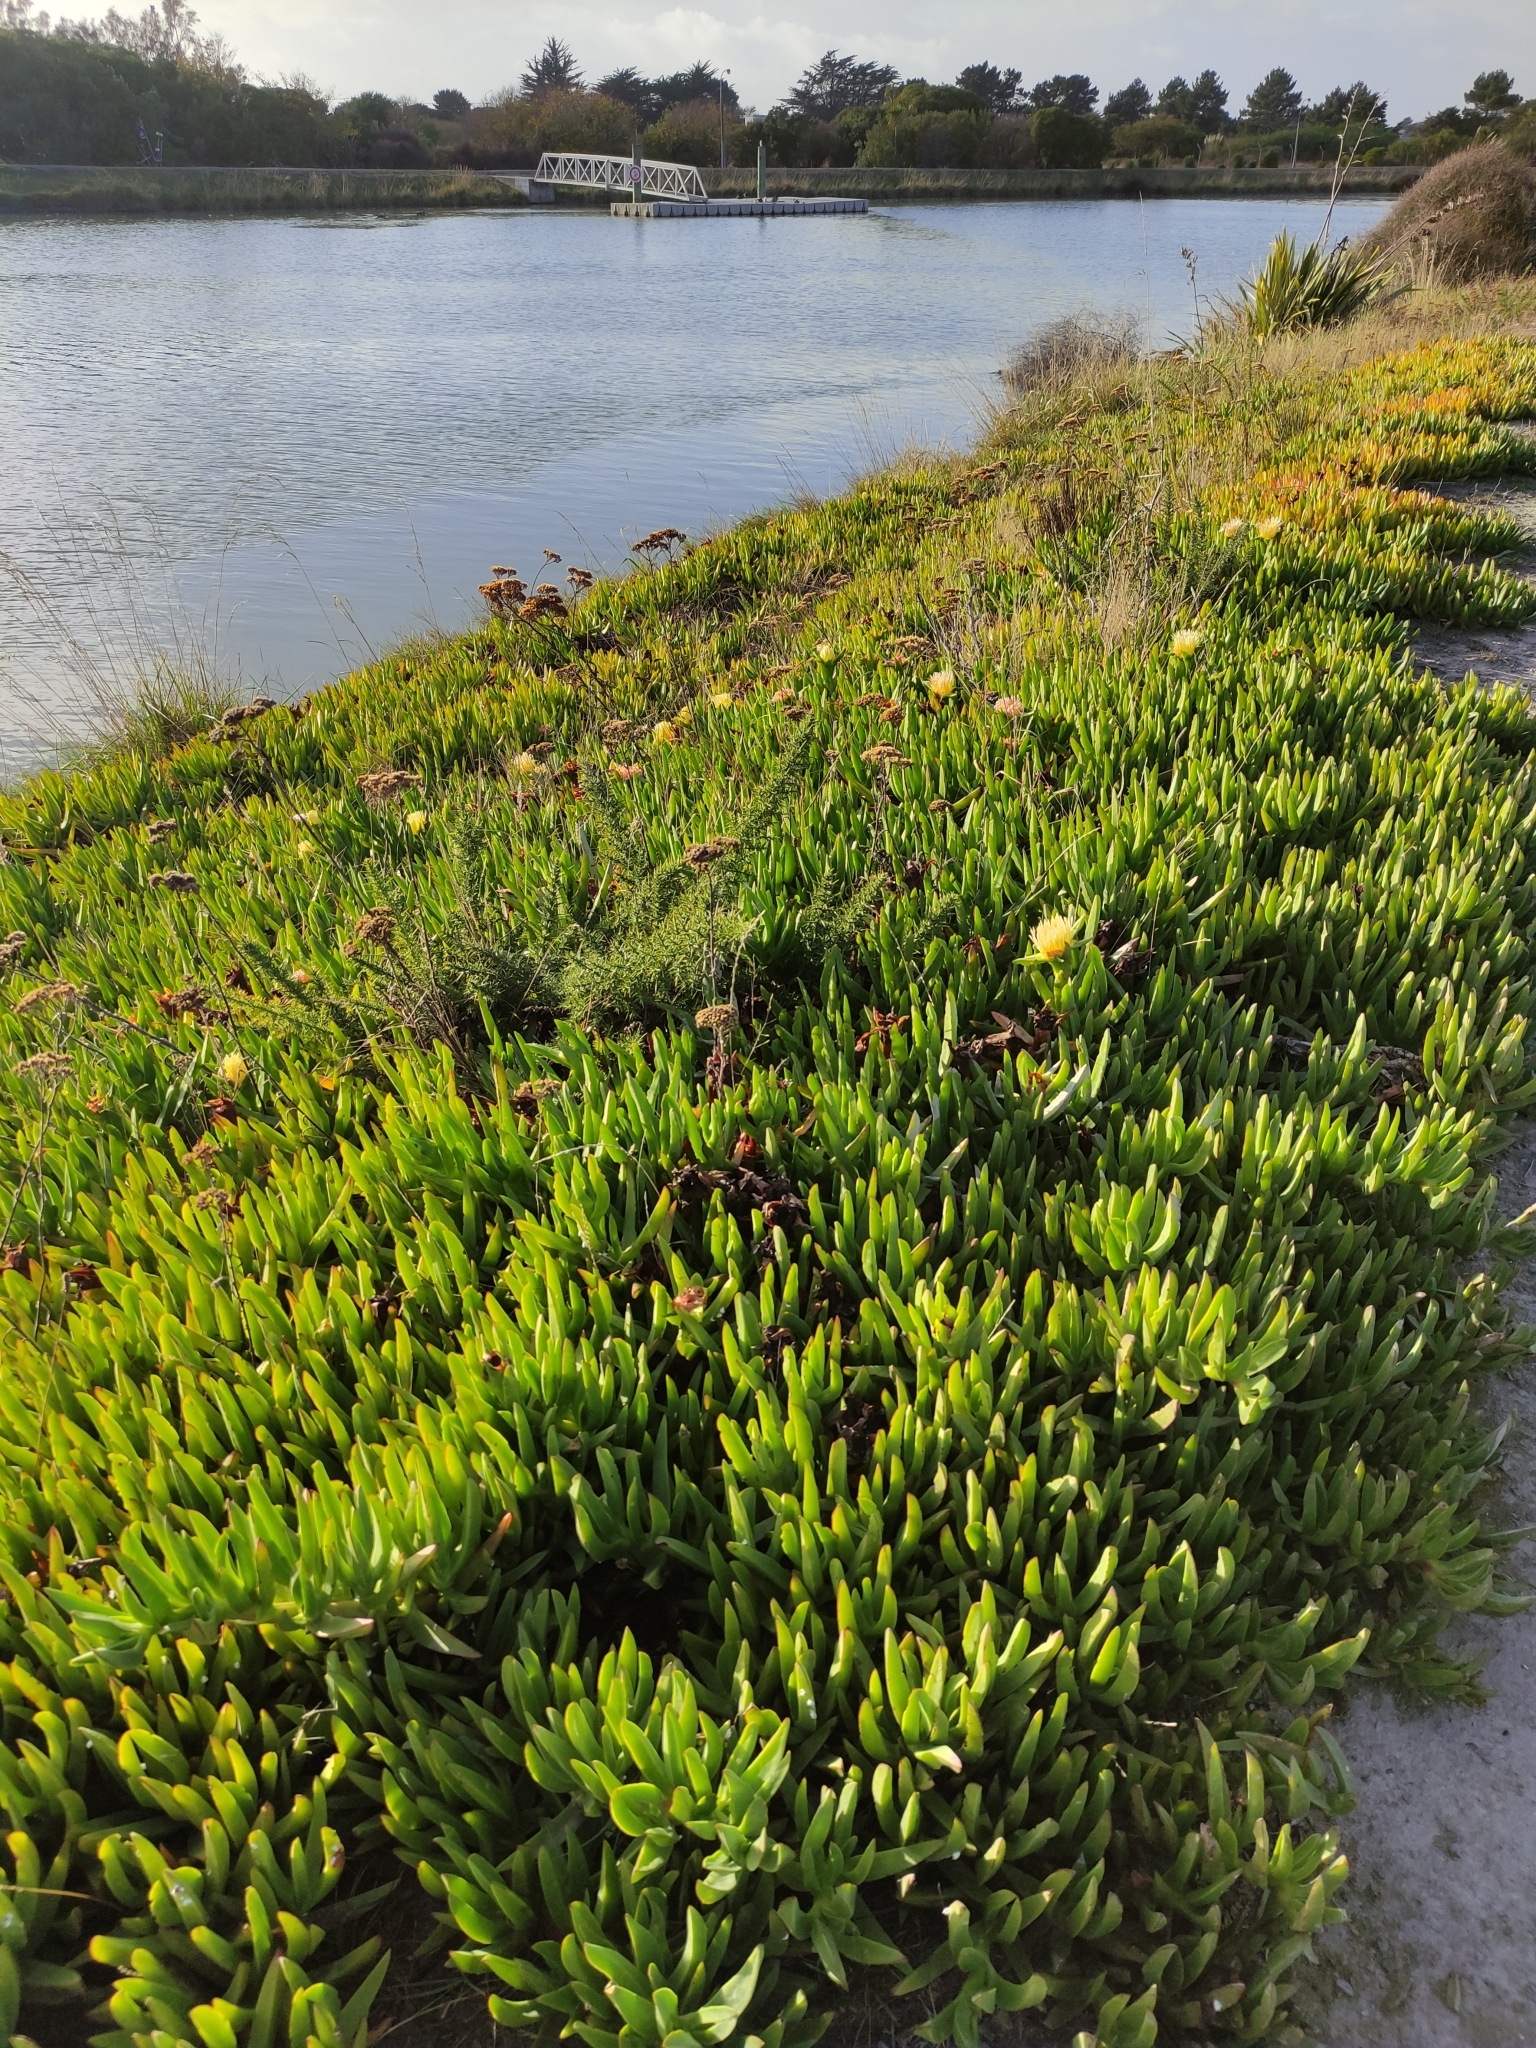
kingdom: Plantae
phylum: Tracheophyta
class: Magnoliopsida
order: Caryophyllales
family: Aizoaceae
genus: Carpobrotus
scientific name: Carpobrotus chilensis
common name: Sea fig
